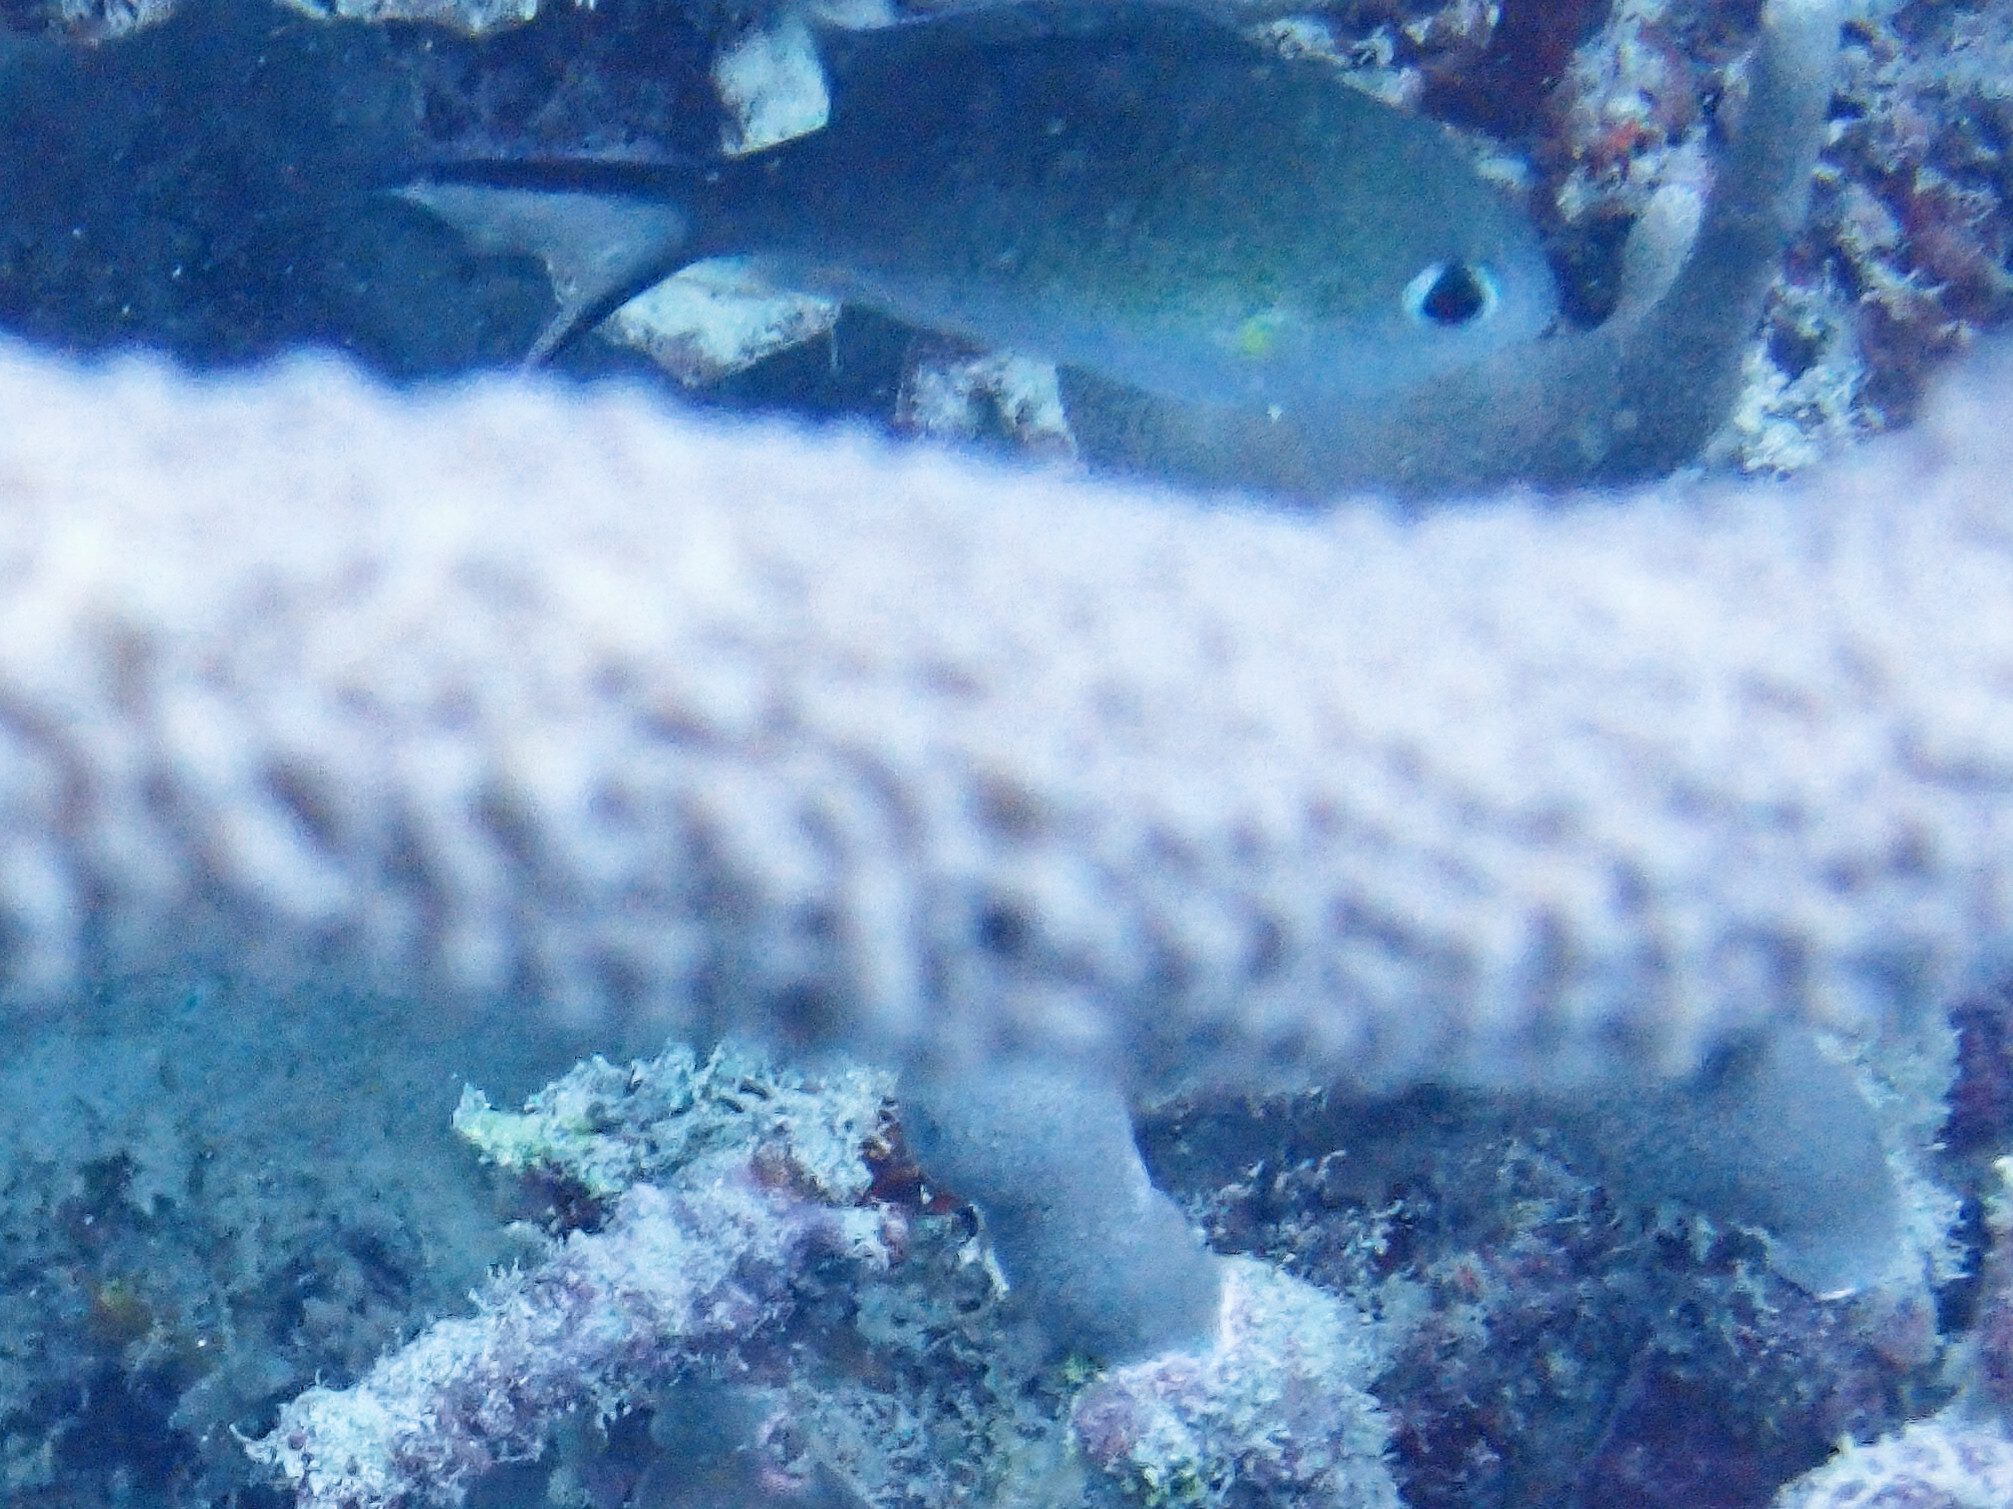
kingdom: Animalia
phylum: Chordata
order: Perciformes
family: Pomacentridae
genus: Chromis
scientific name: Chromis ternatensis
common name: Ternate chromis
